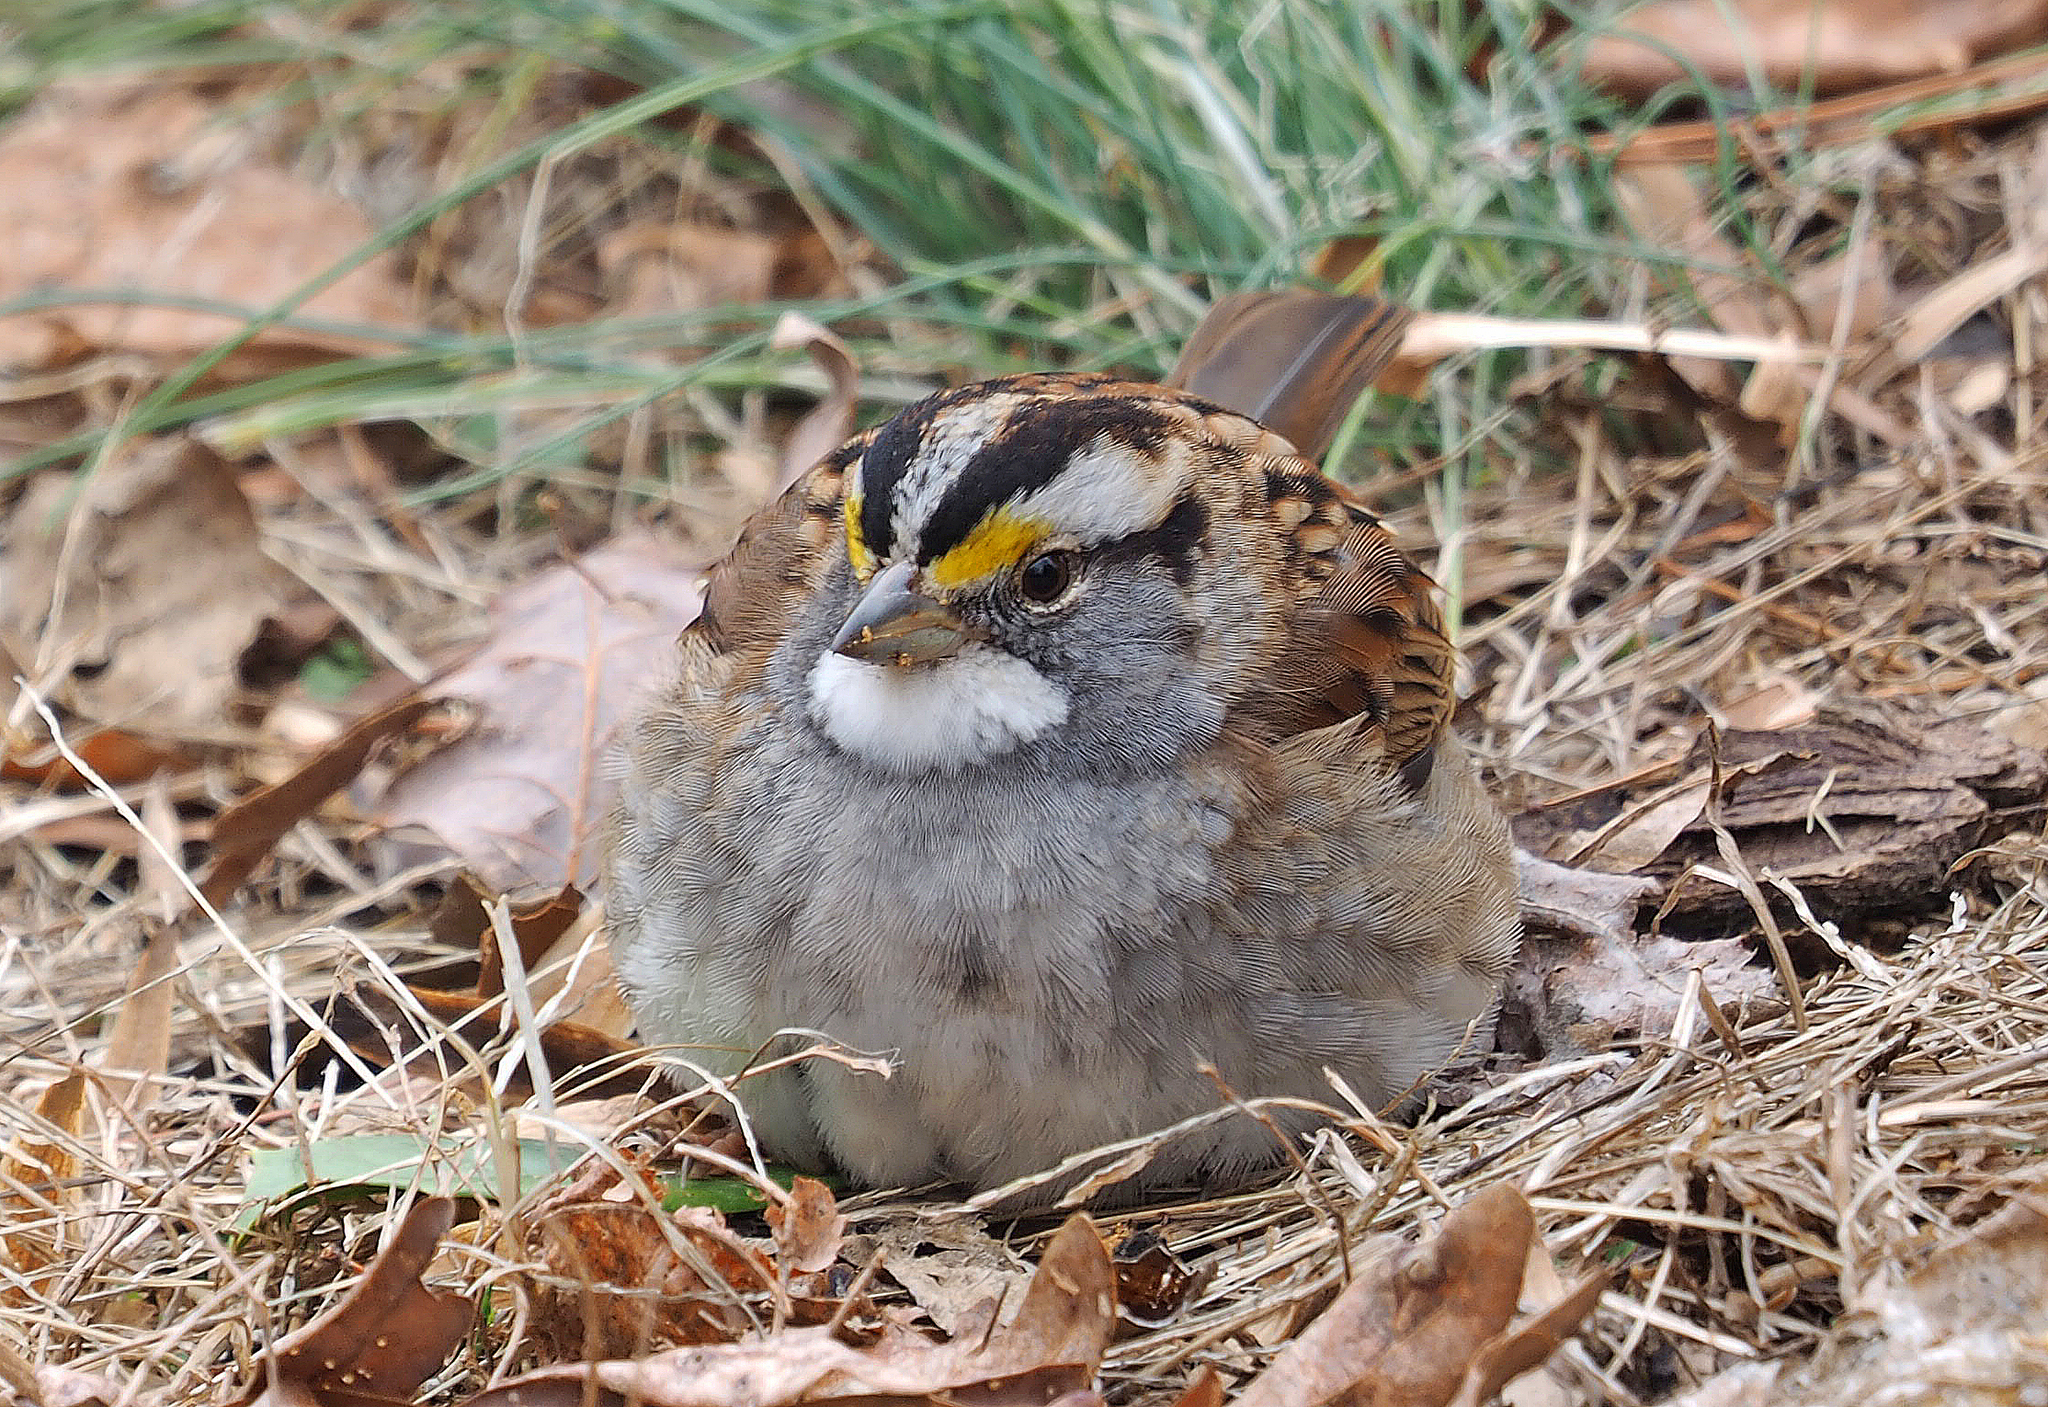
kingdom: Animalia
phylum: Chordata
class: Aves
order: Passeriformes
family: Passerellidae
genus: Zonotrichia
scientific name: Zonotrichia albicollis
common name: White-throated sparrow
